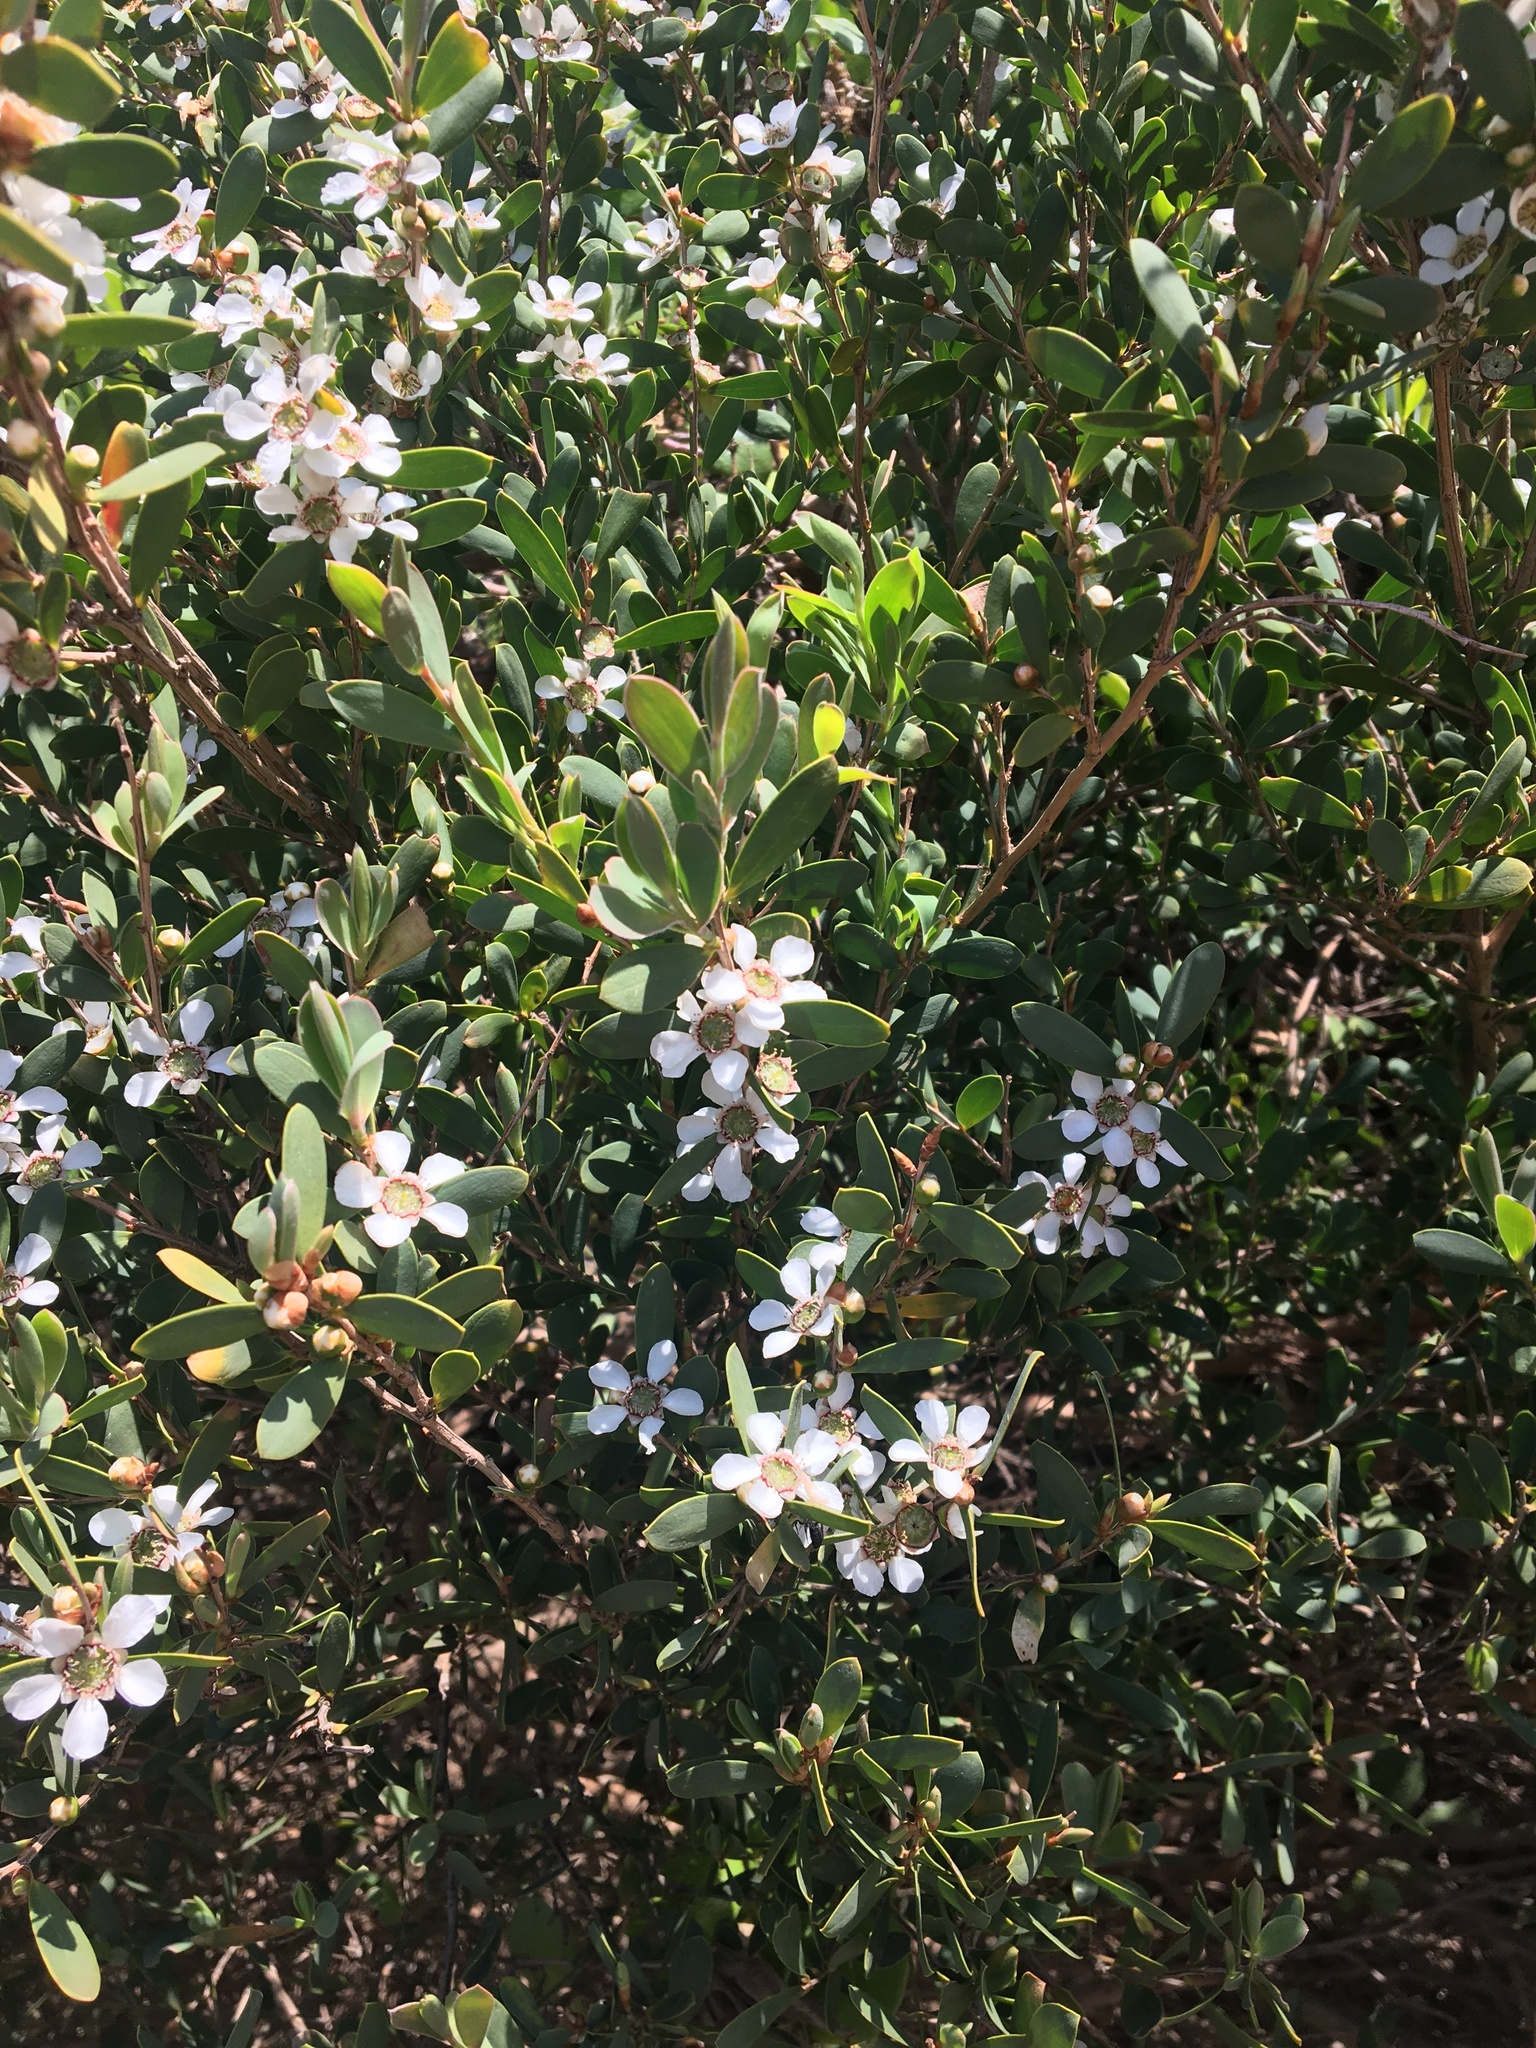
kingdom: Plantae
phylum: Tracheophyta
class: Magnoliopsida
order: Myrtales
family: Myrtaceae
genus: Leptospermum
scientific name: Leptospermum laevigatum
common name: Australian teatree
